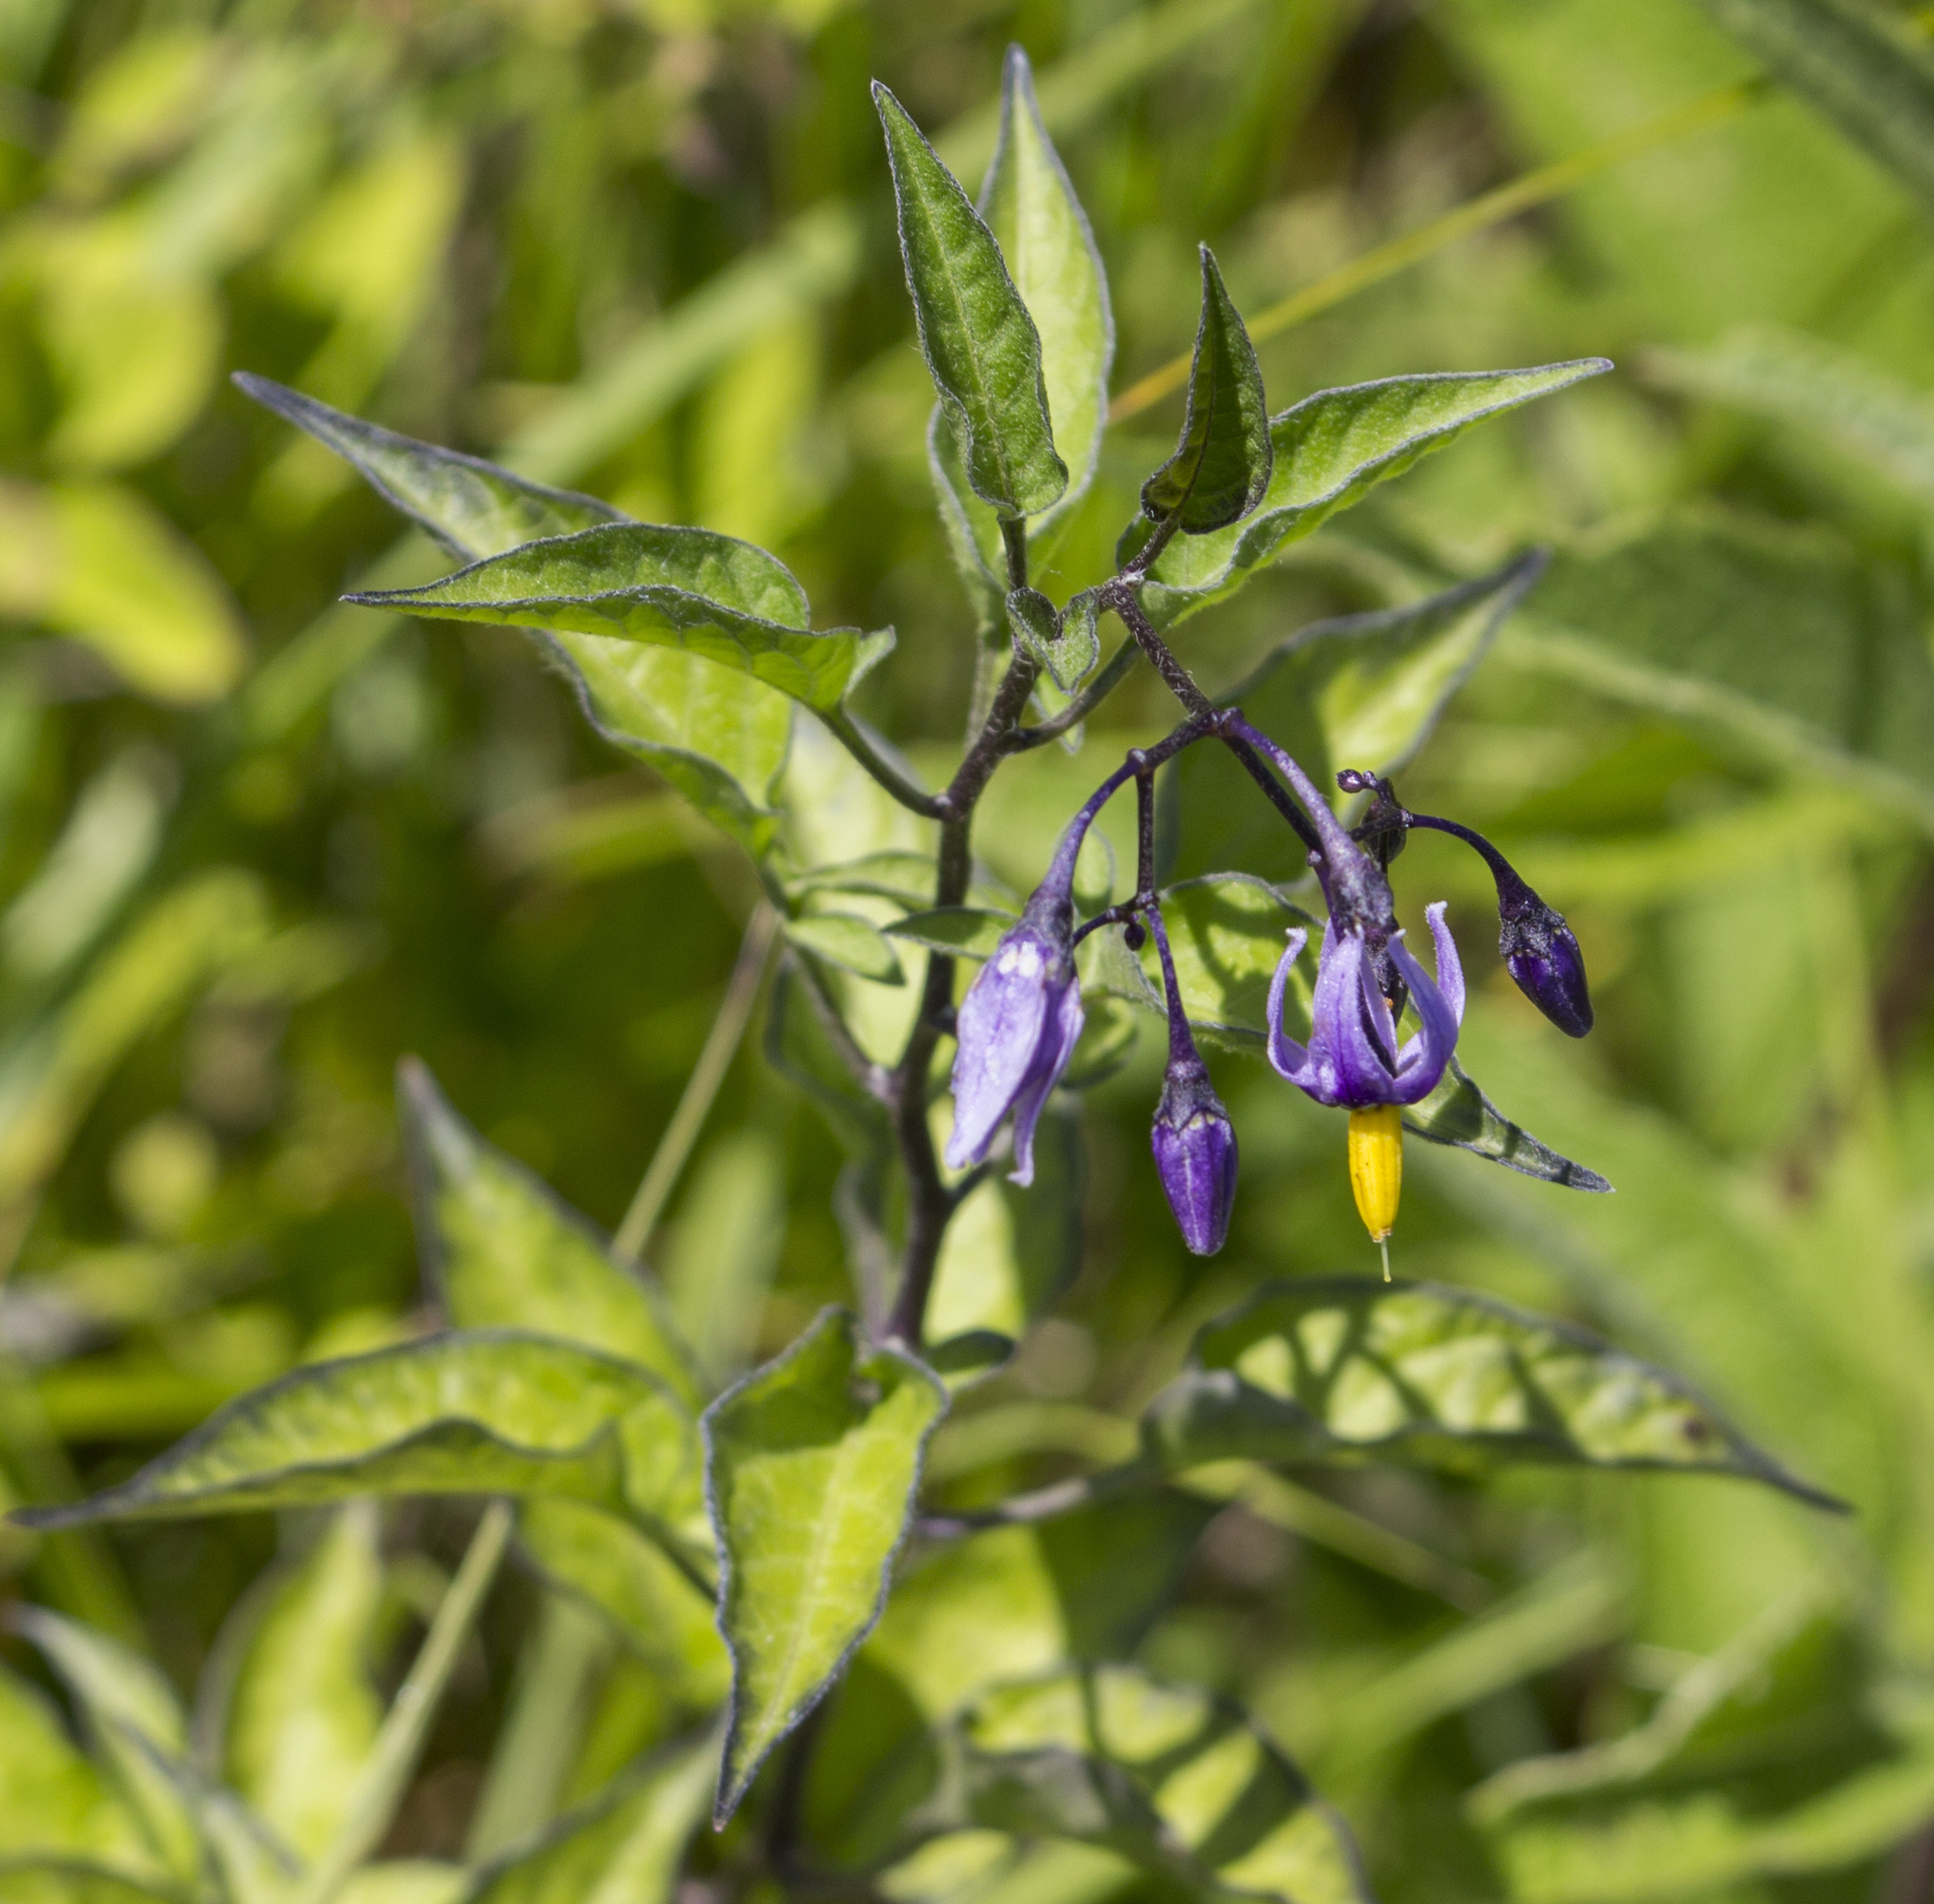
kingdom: Plantae
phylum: Tracheophyta
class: Magnoliopsida
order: Solanales
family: Solanaceae
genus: Solanum
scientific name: Solanum dulcamara
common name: Climbing nightshade
